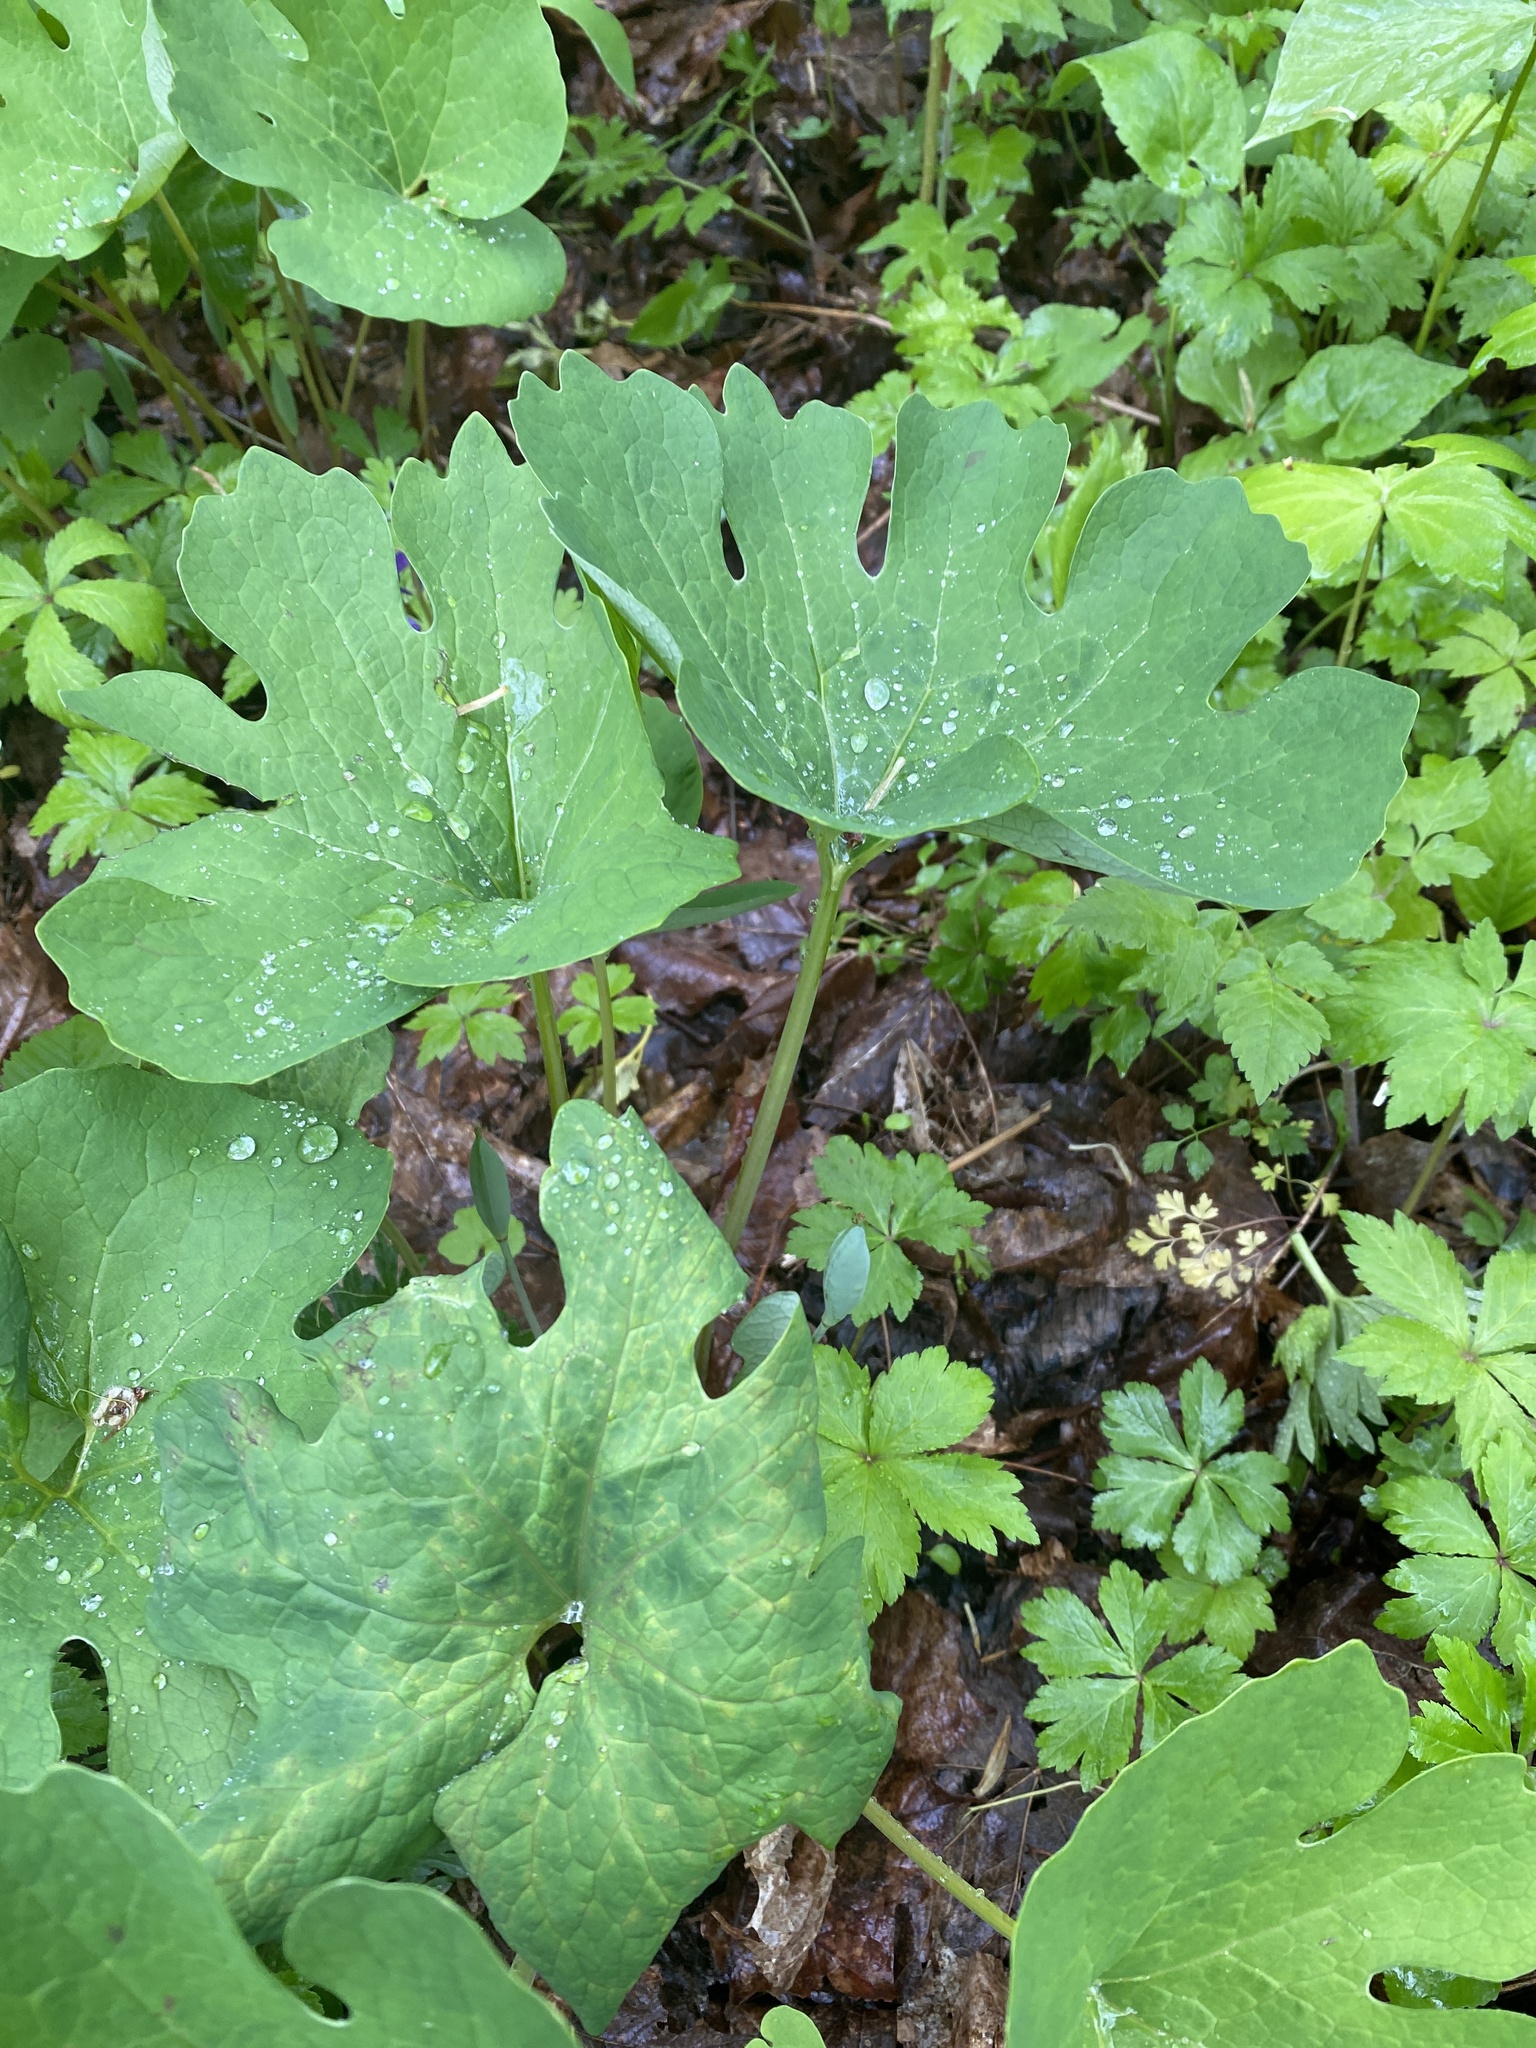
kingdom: Plantae
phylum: Tracheophyta
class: Magnoliopsida
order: Ranunculales
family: Papaveraceae
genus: Sanguinaria
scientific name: Sanguinaria canadensis
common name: Bloodroot
